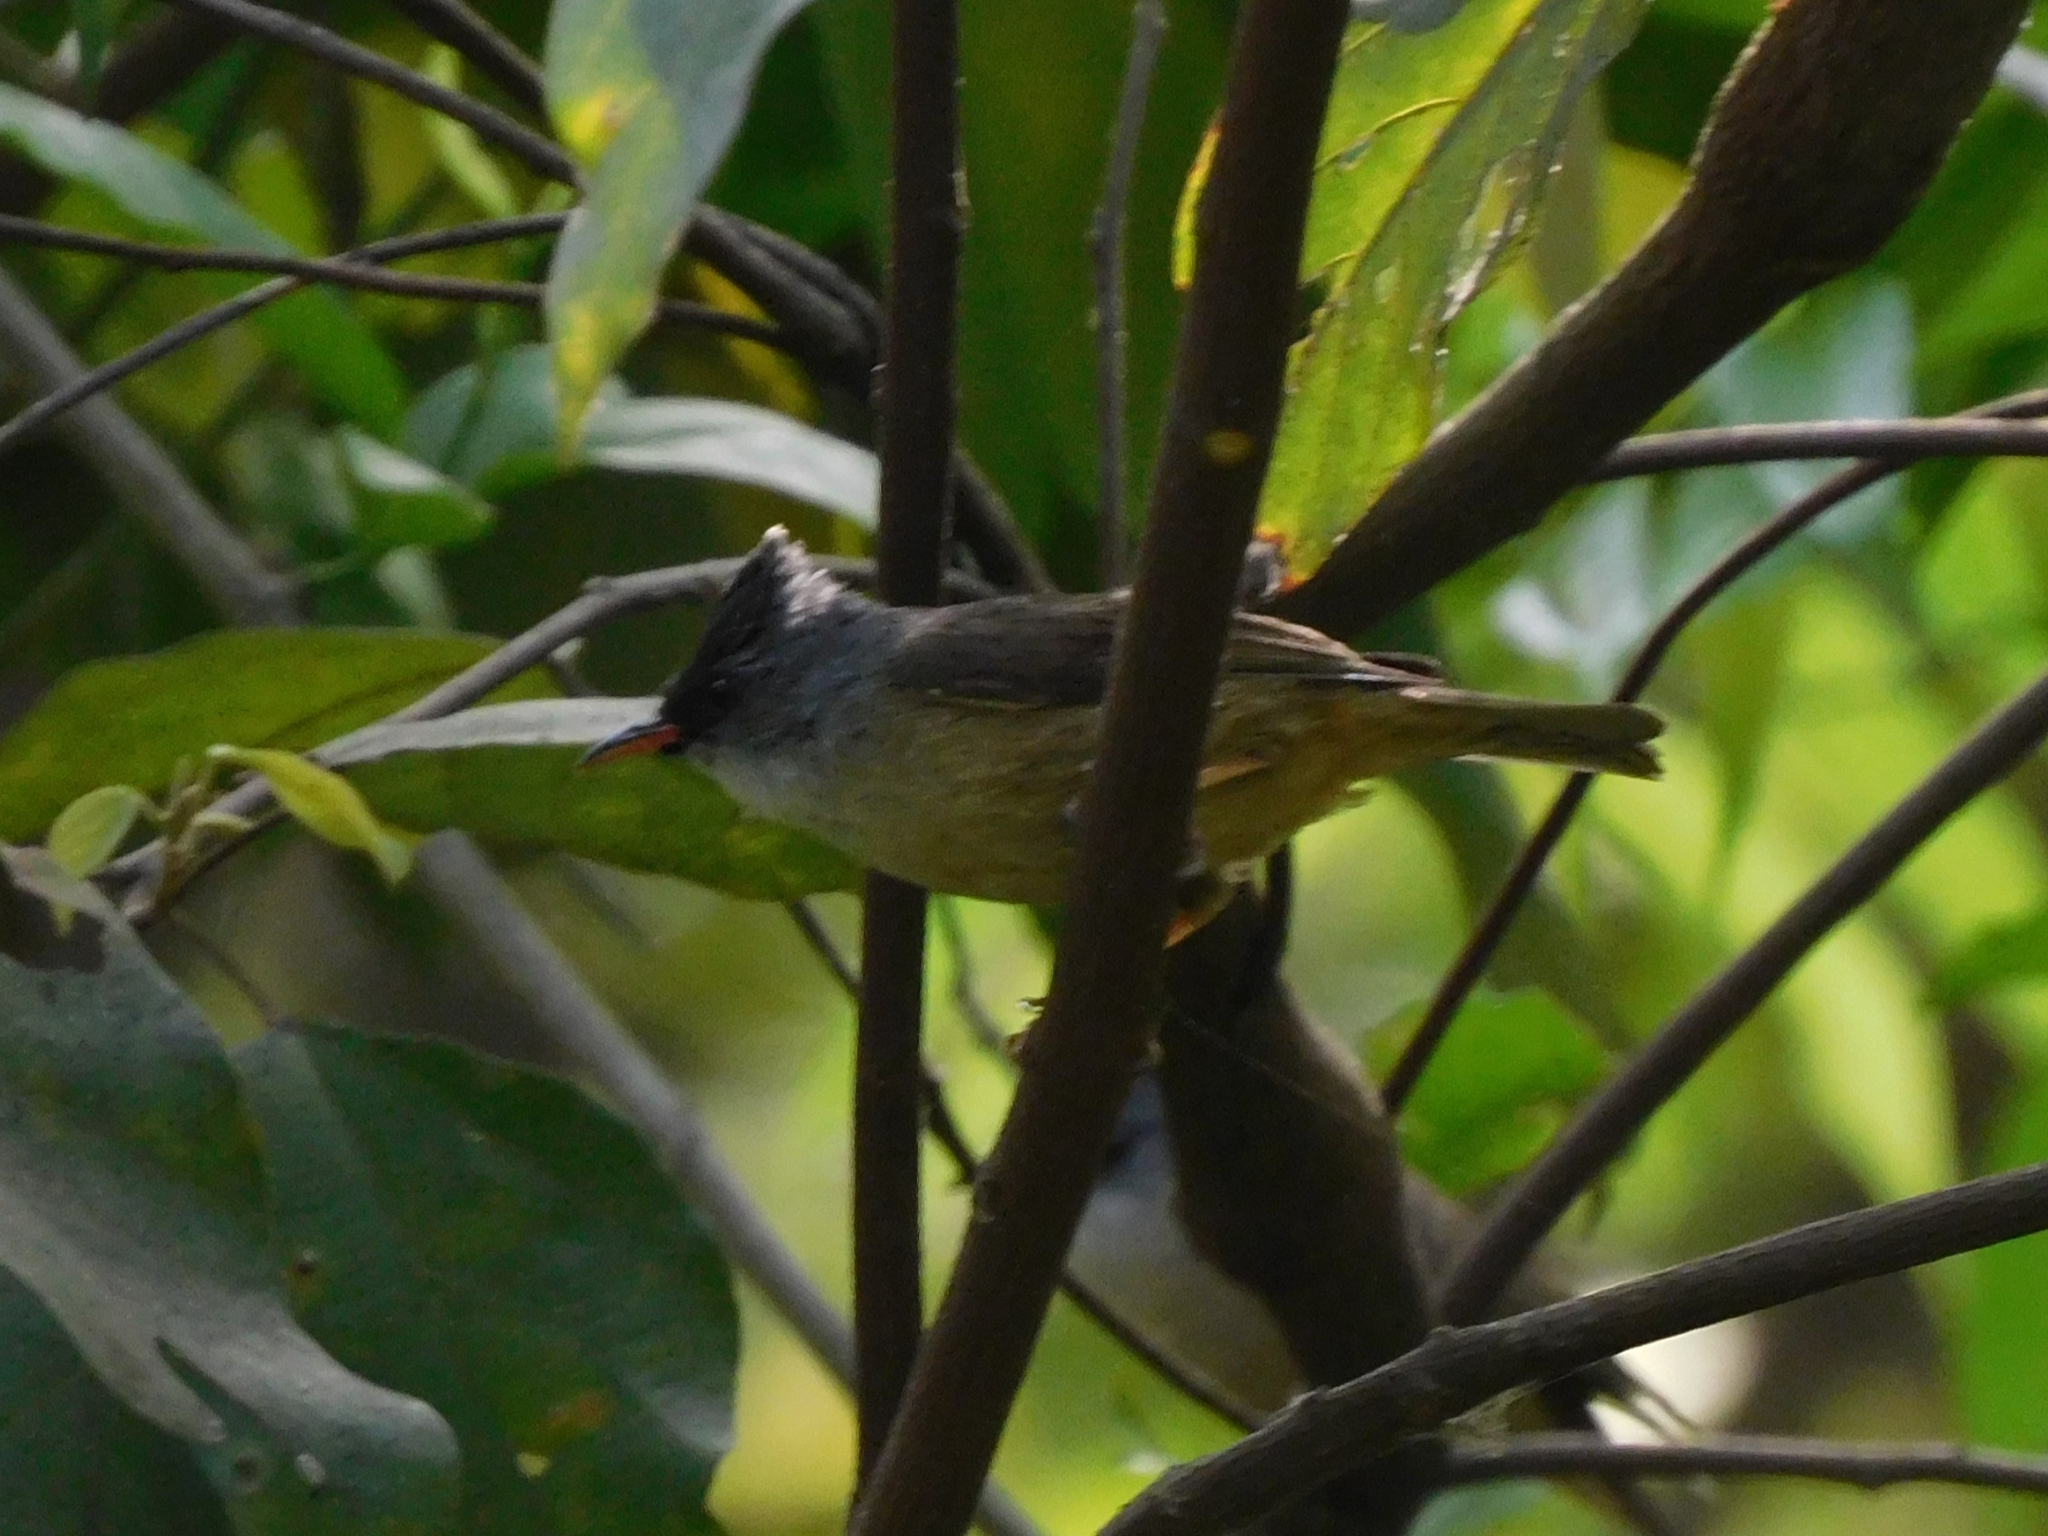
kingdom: Animalia
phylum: Chordata
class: Aves
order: Passeriformes
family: Zosteropidae
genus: Yuhina
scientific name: Yuhina nigrimenta
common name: Black-chinned yuhina
